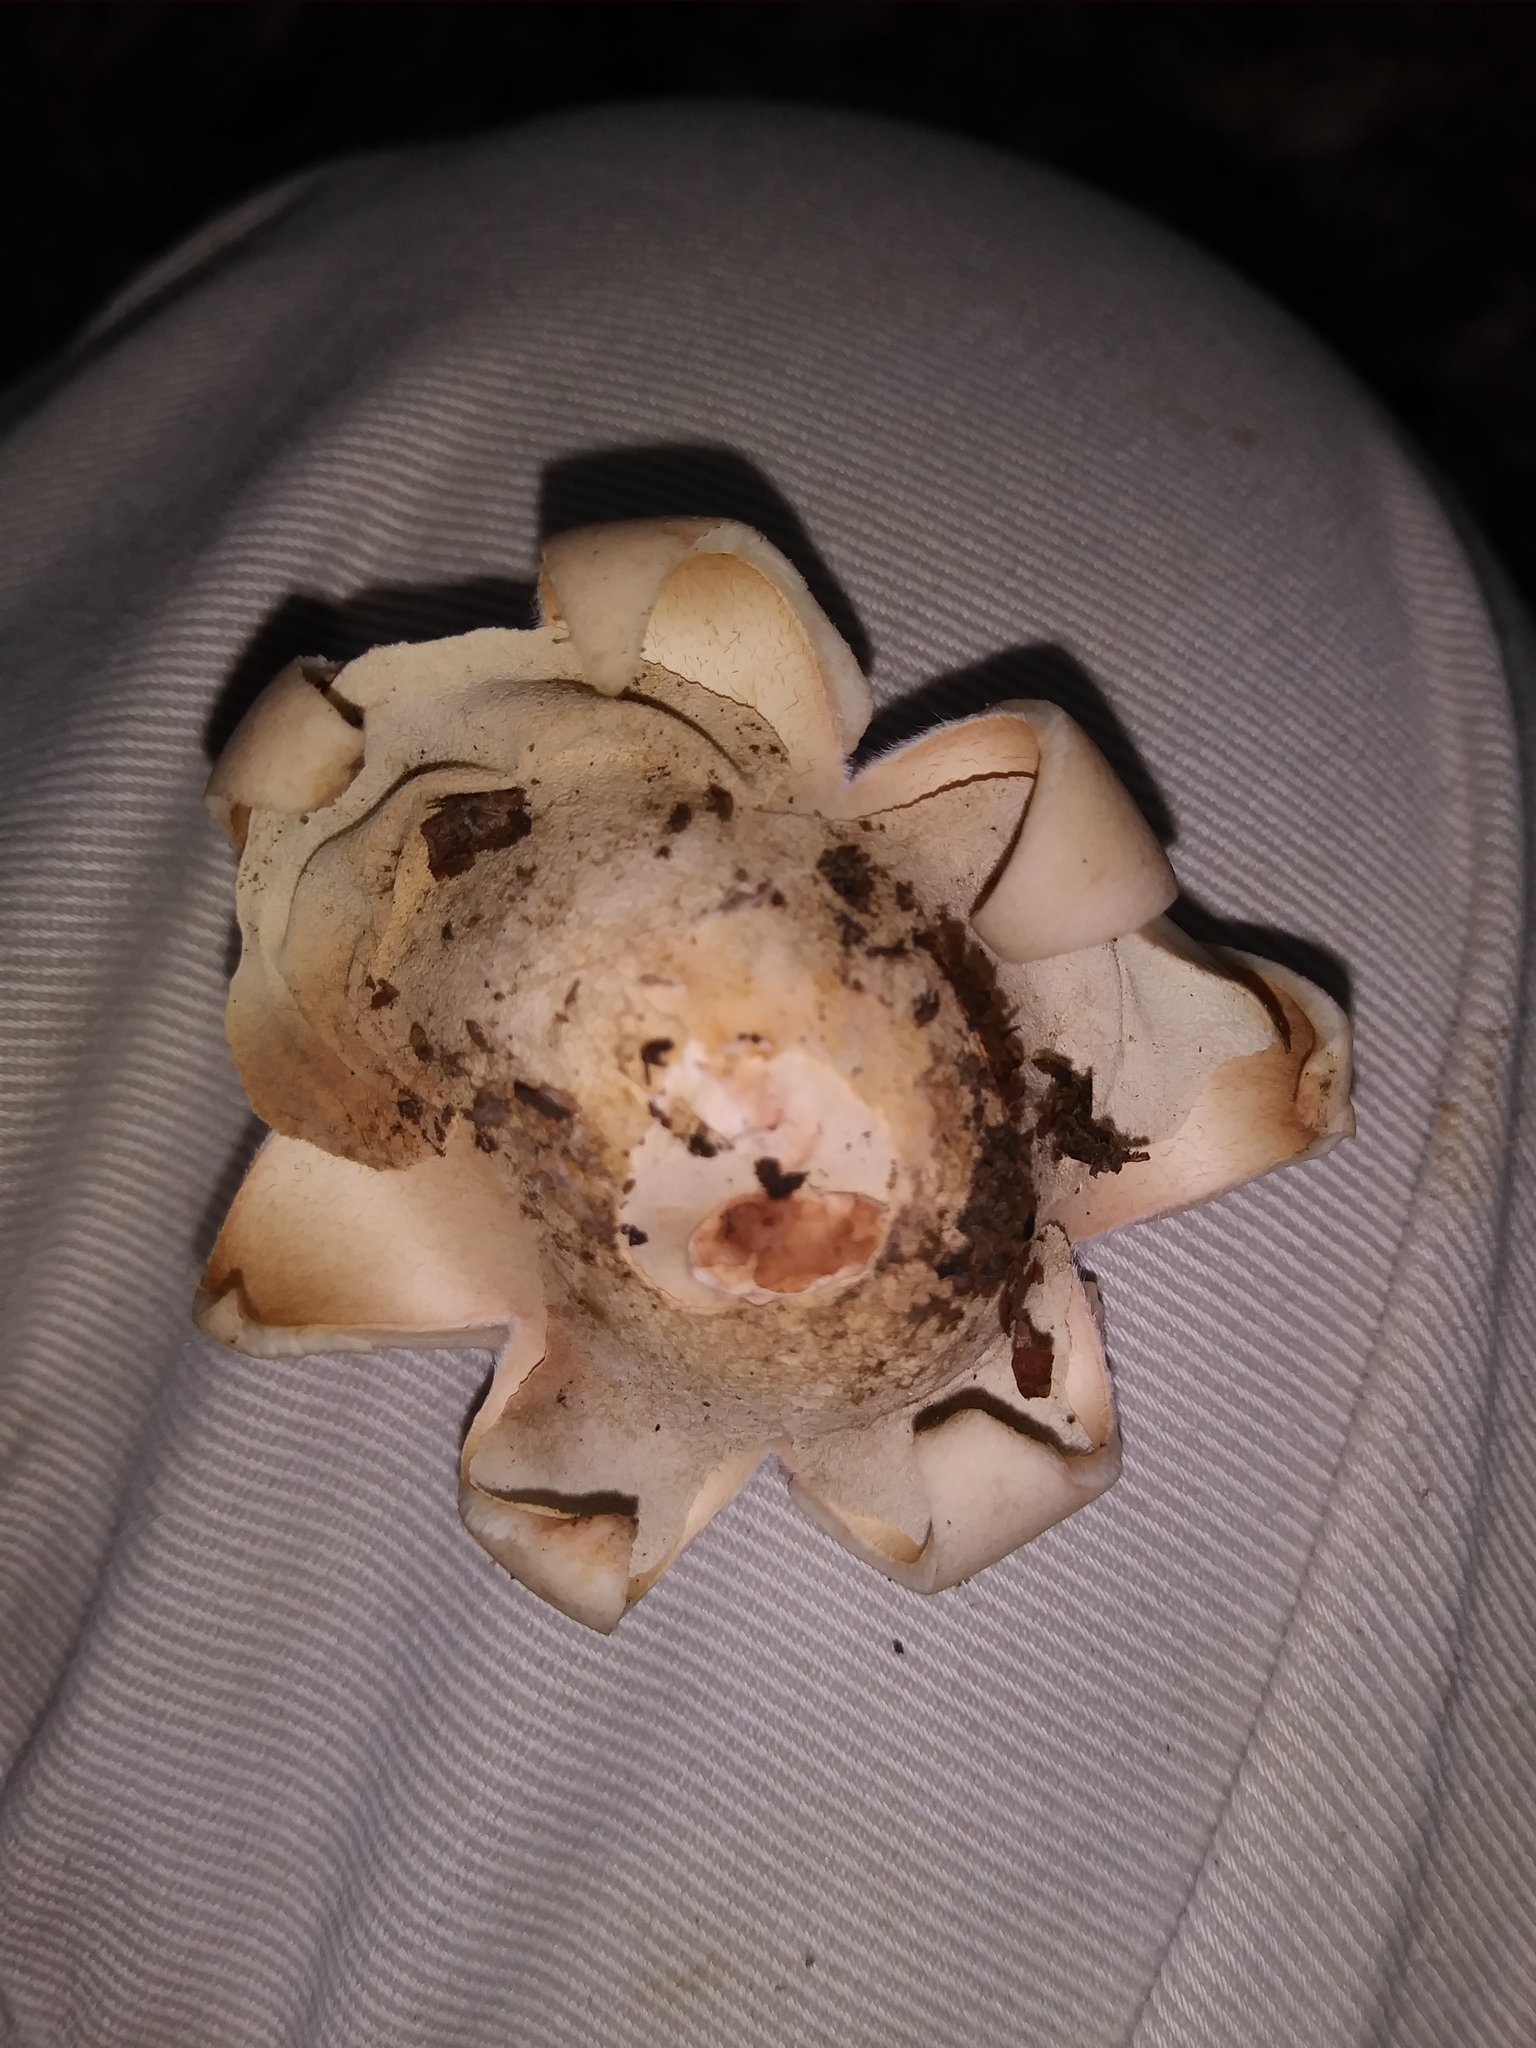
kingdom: Fungi
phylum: Basidiomycota
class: Agaricomycetes
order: Geastrales
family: Geastraceae
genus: Geastrum
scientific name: Geastrum saccatum
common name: Rounded earthstar
